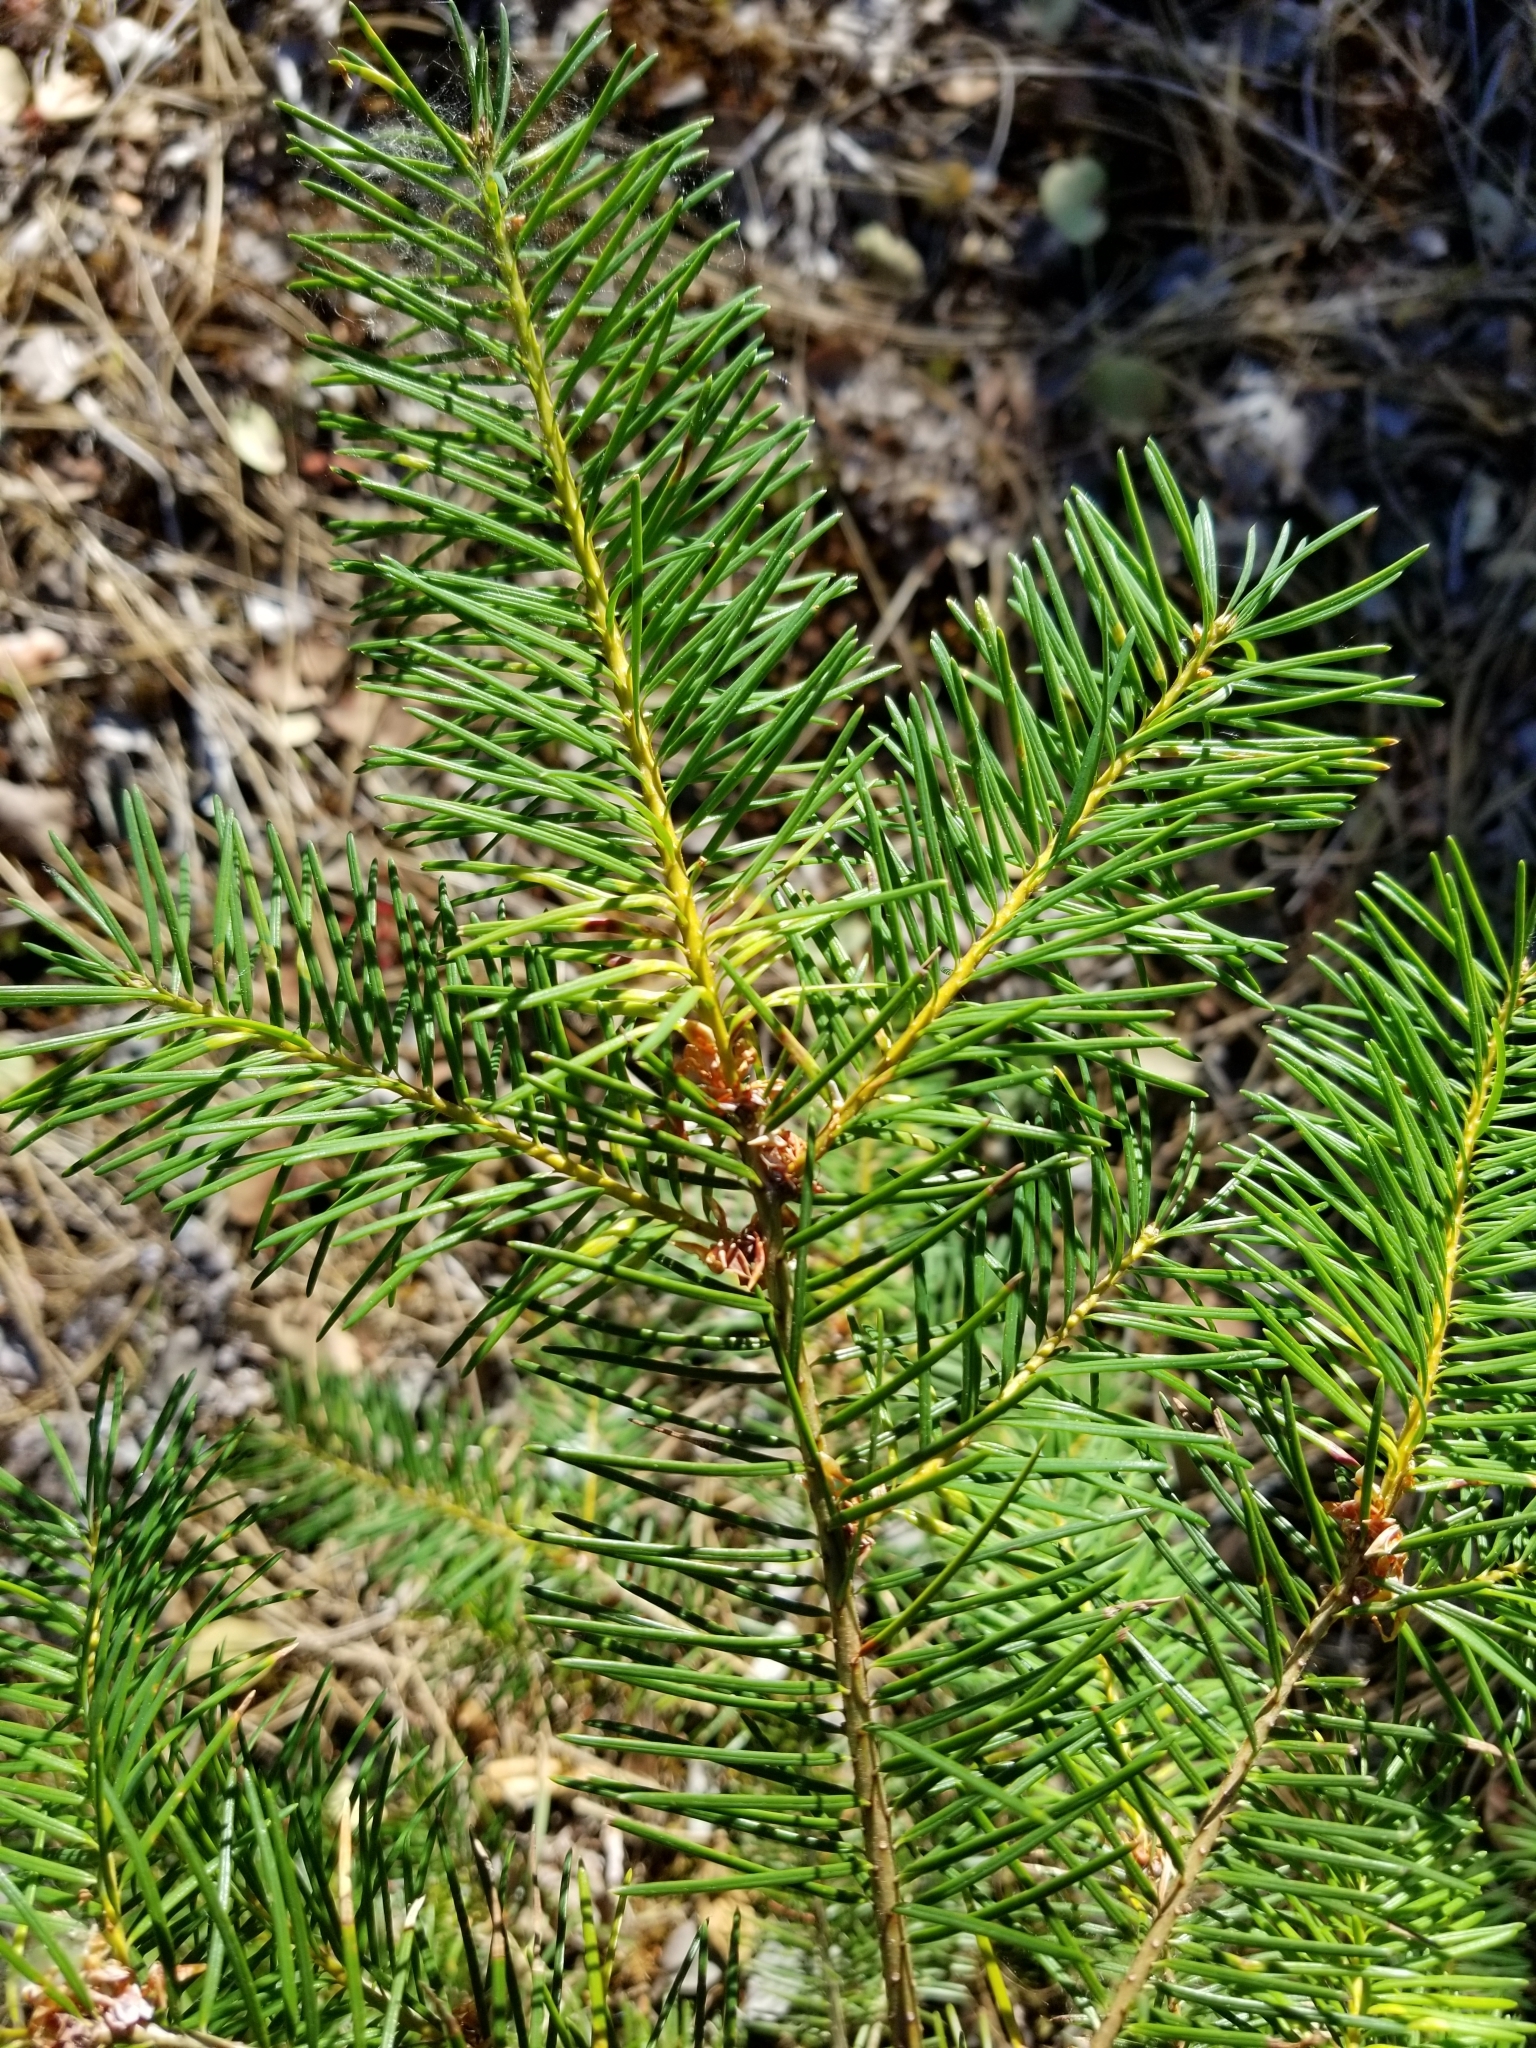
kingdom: Plantae
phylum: Tracheophyta
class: Pinopsida
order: Pinales
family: Pinaceae
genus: Pseudotsuga
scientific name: Pseudotsuga menziesii
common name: Douglas fir
